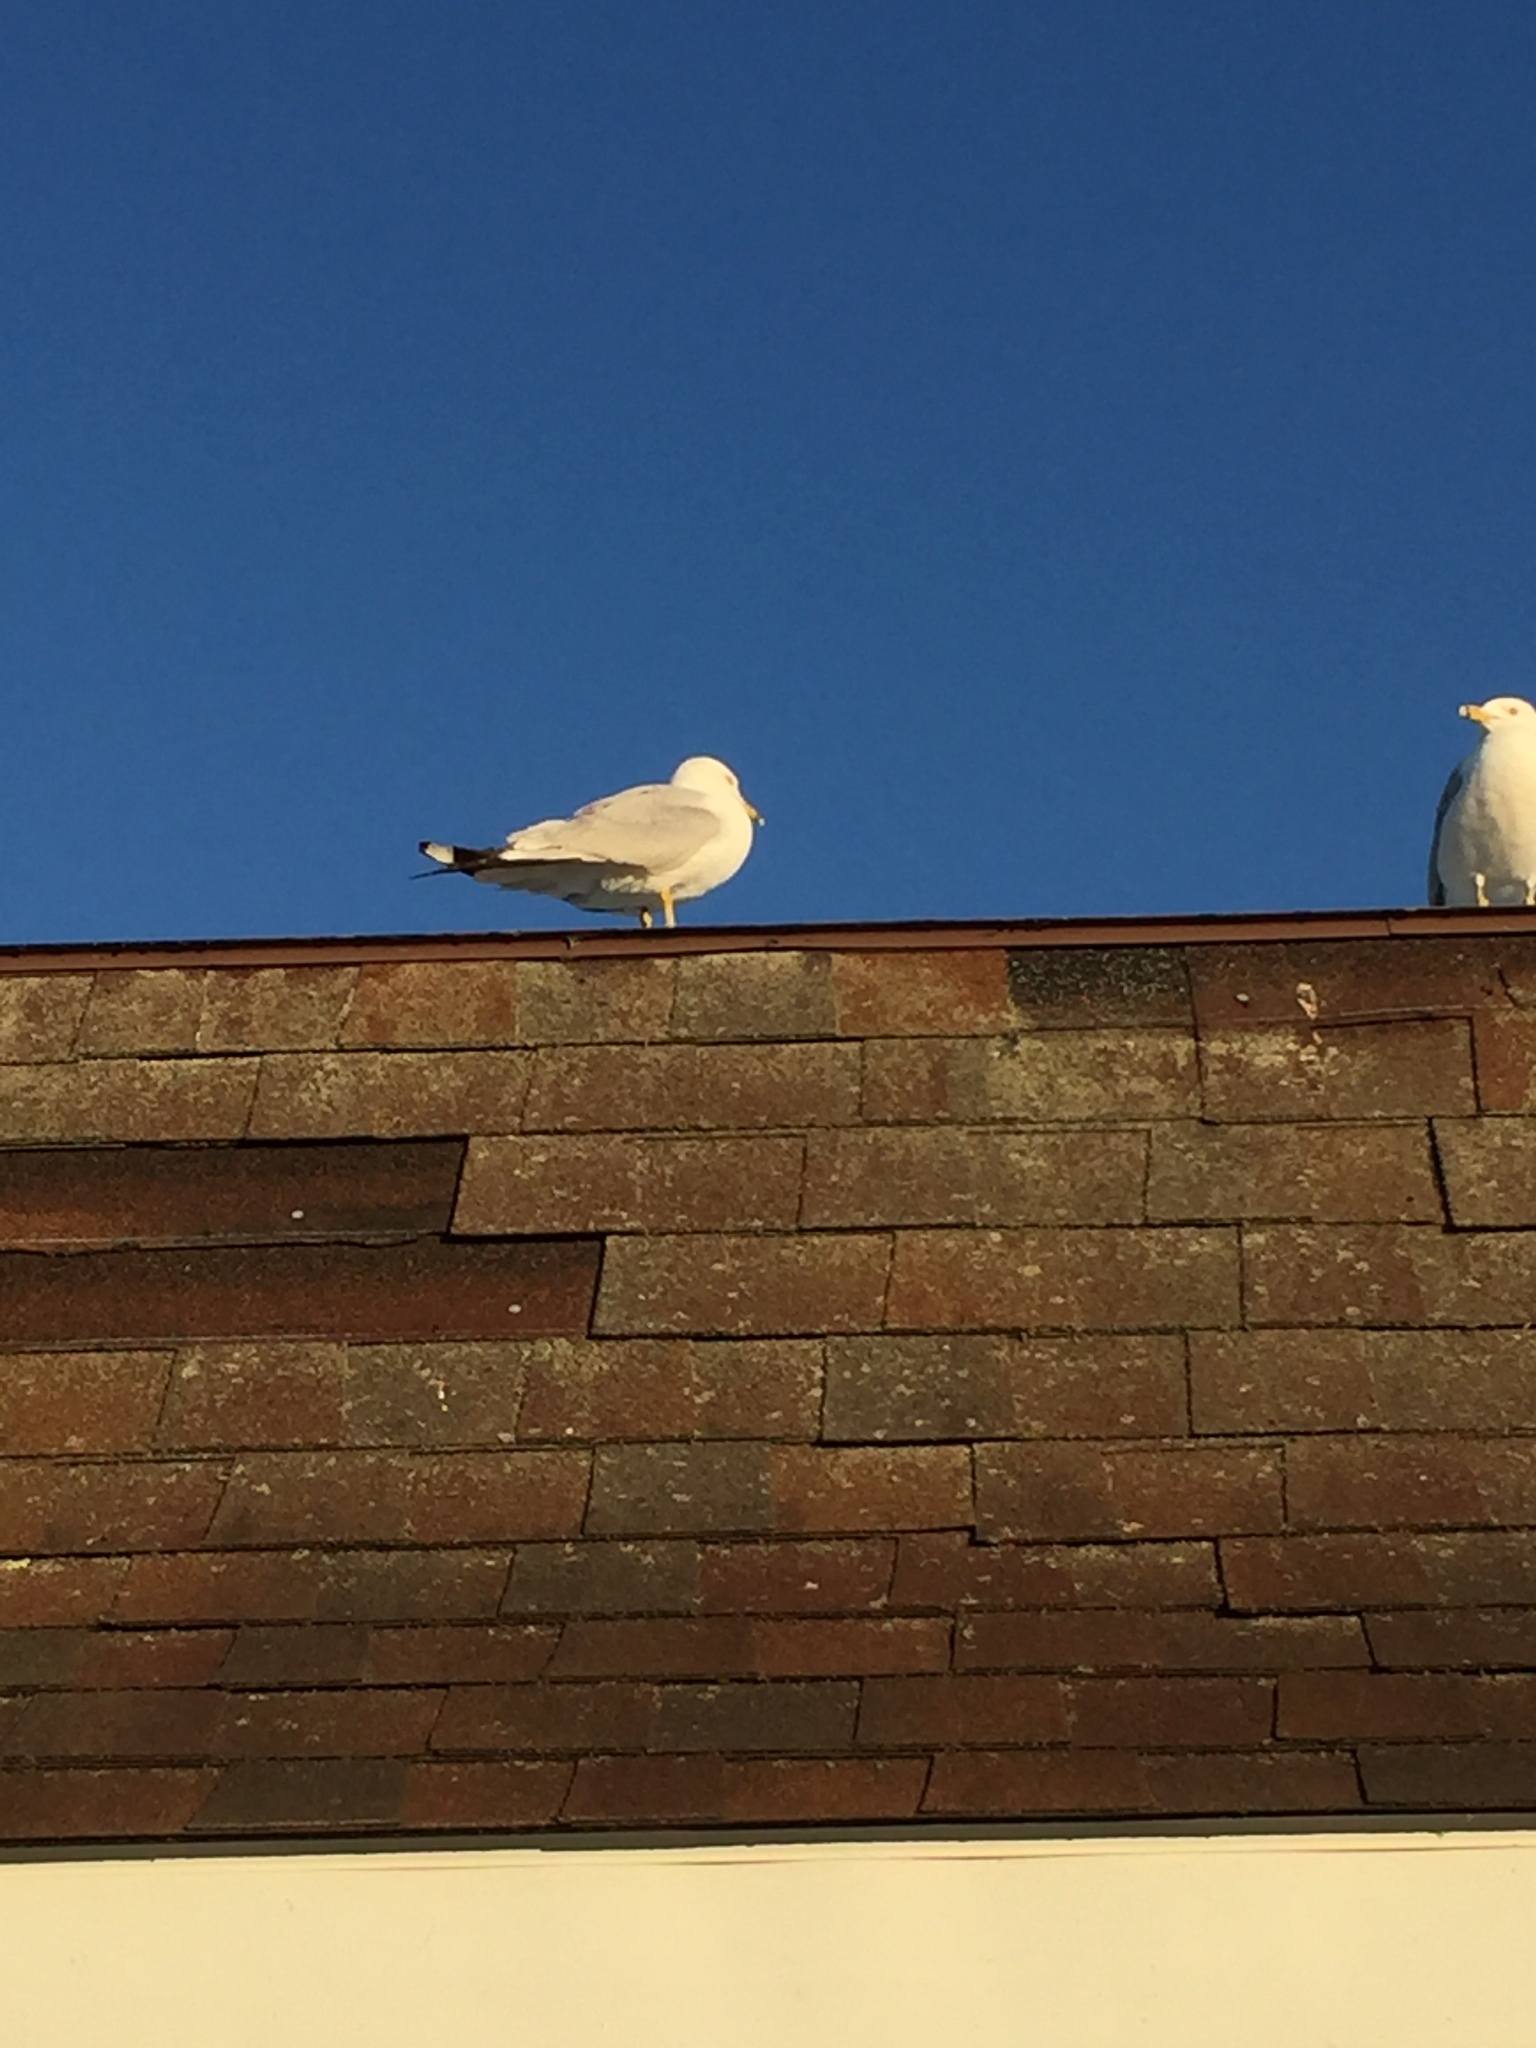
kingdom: Animalia
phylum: Chordata
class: Aves
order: Charadriiformes
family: Laridae
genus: Larus
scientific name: Larus delawarensis
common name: Ring-billed gull
